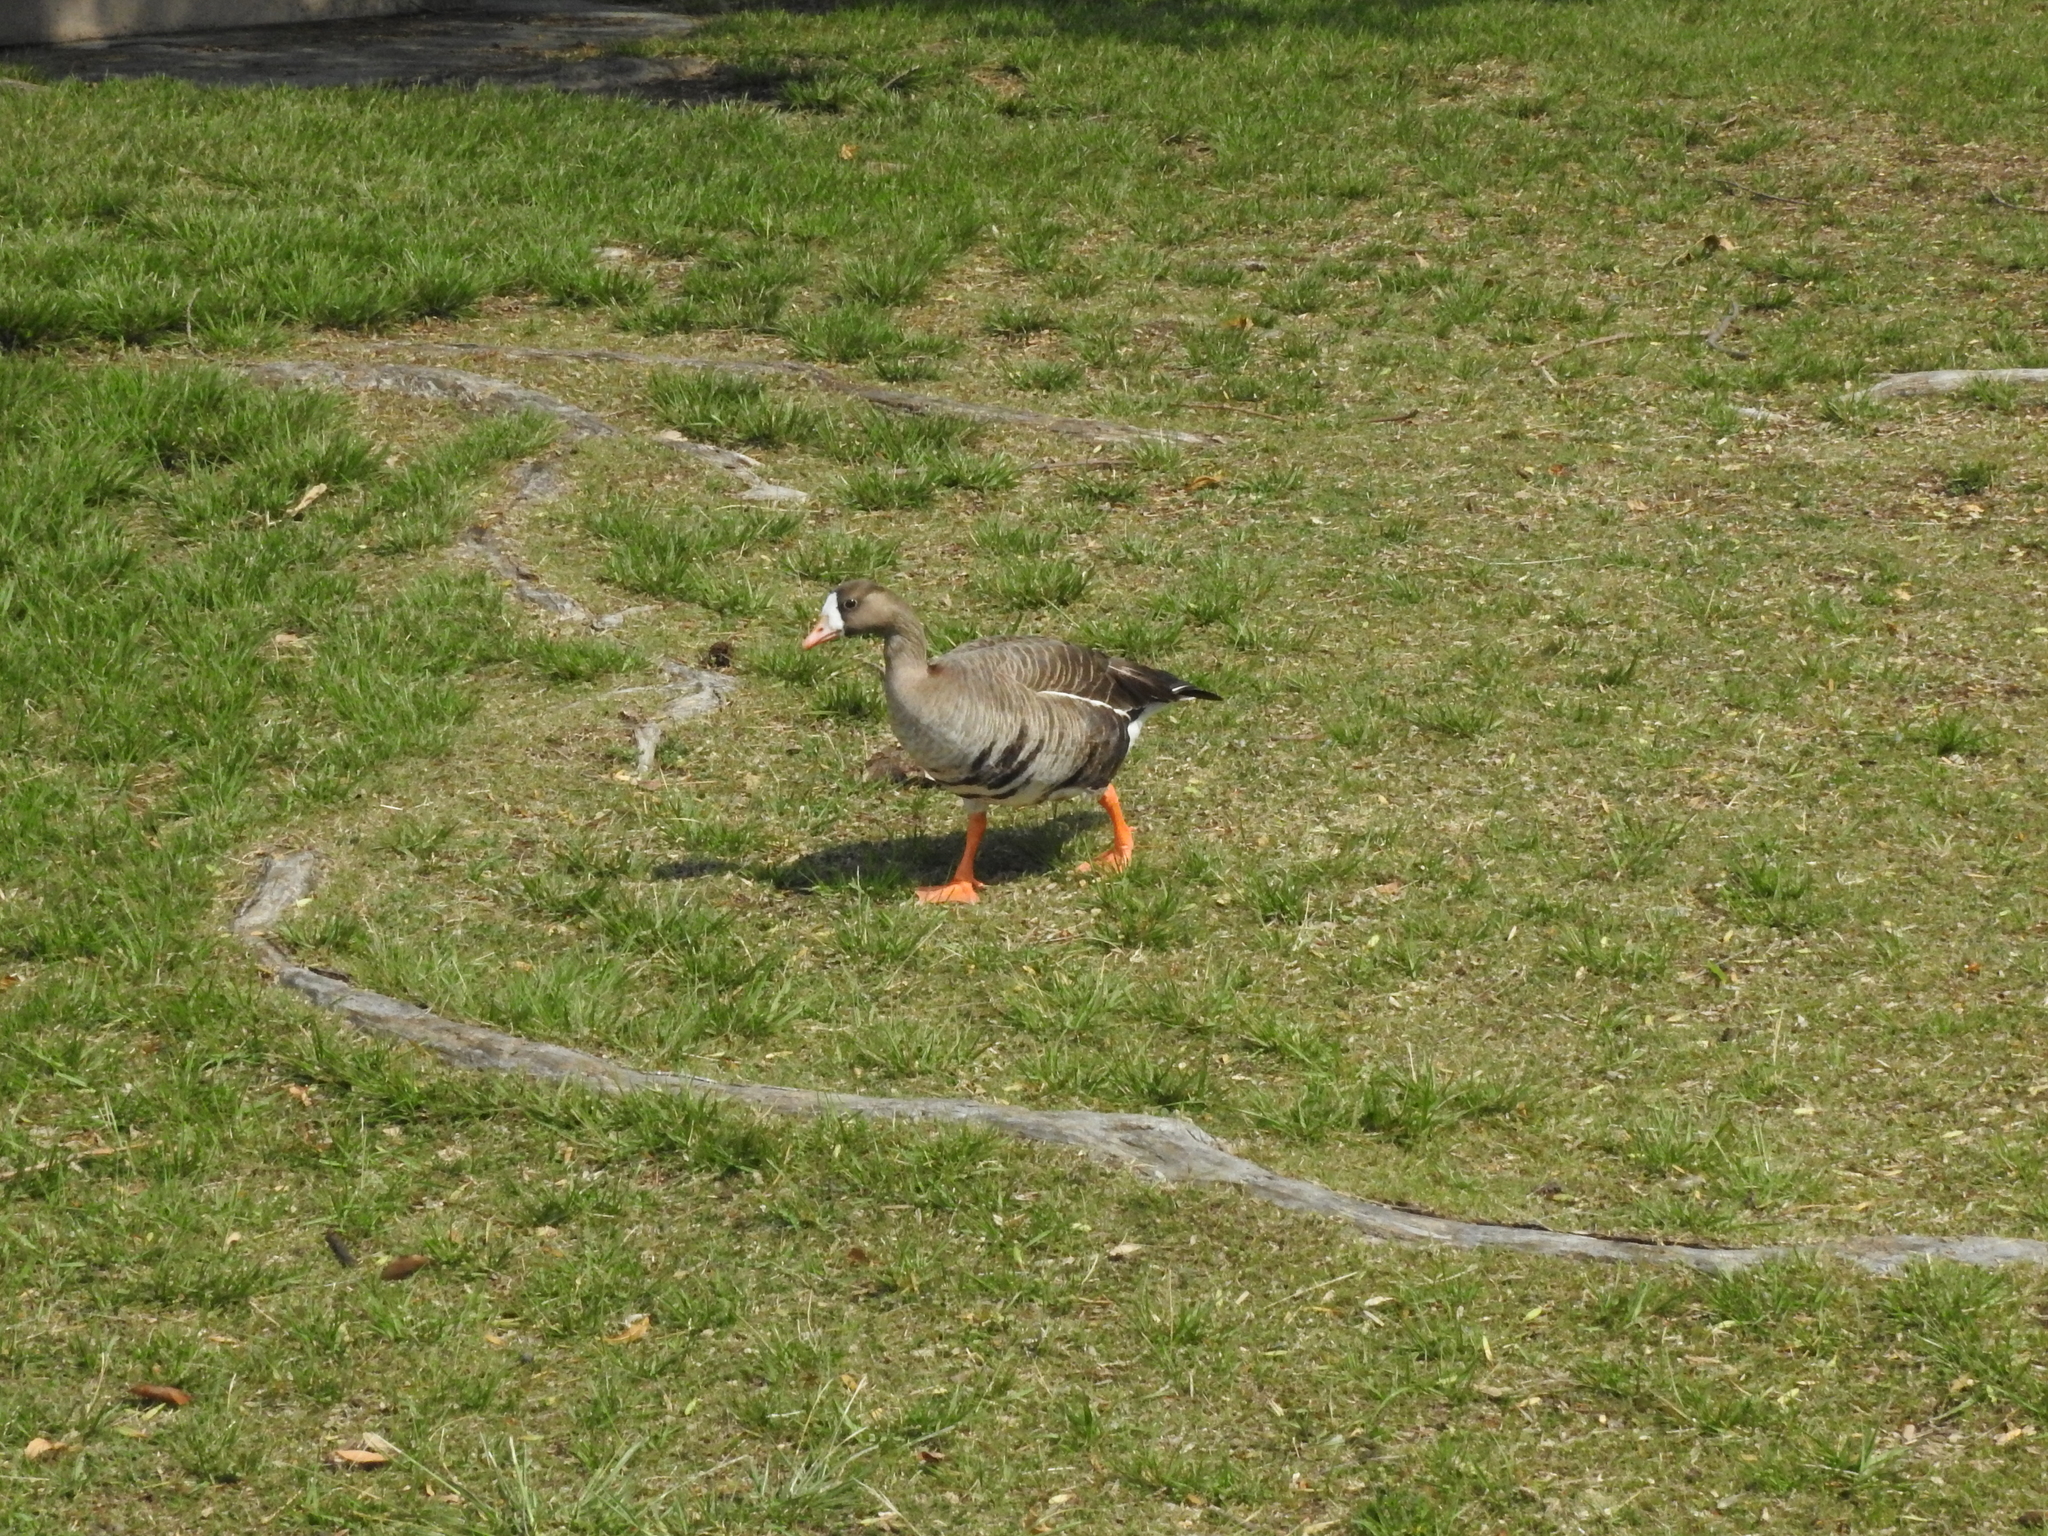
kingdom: Animalia
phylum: Chordata
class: Aves
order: Anseriformes
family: Anatidae
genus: Anser
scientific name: Anser albifrons
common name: Greater white-fronted goose
